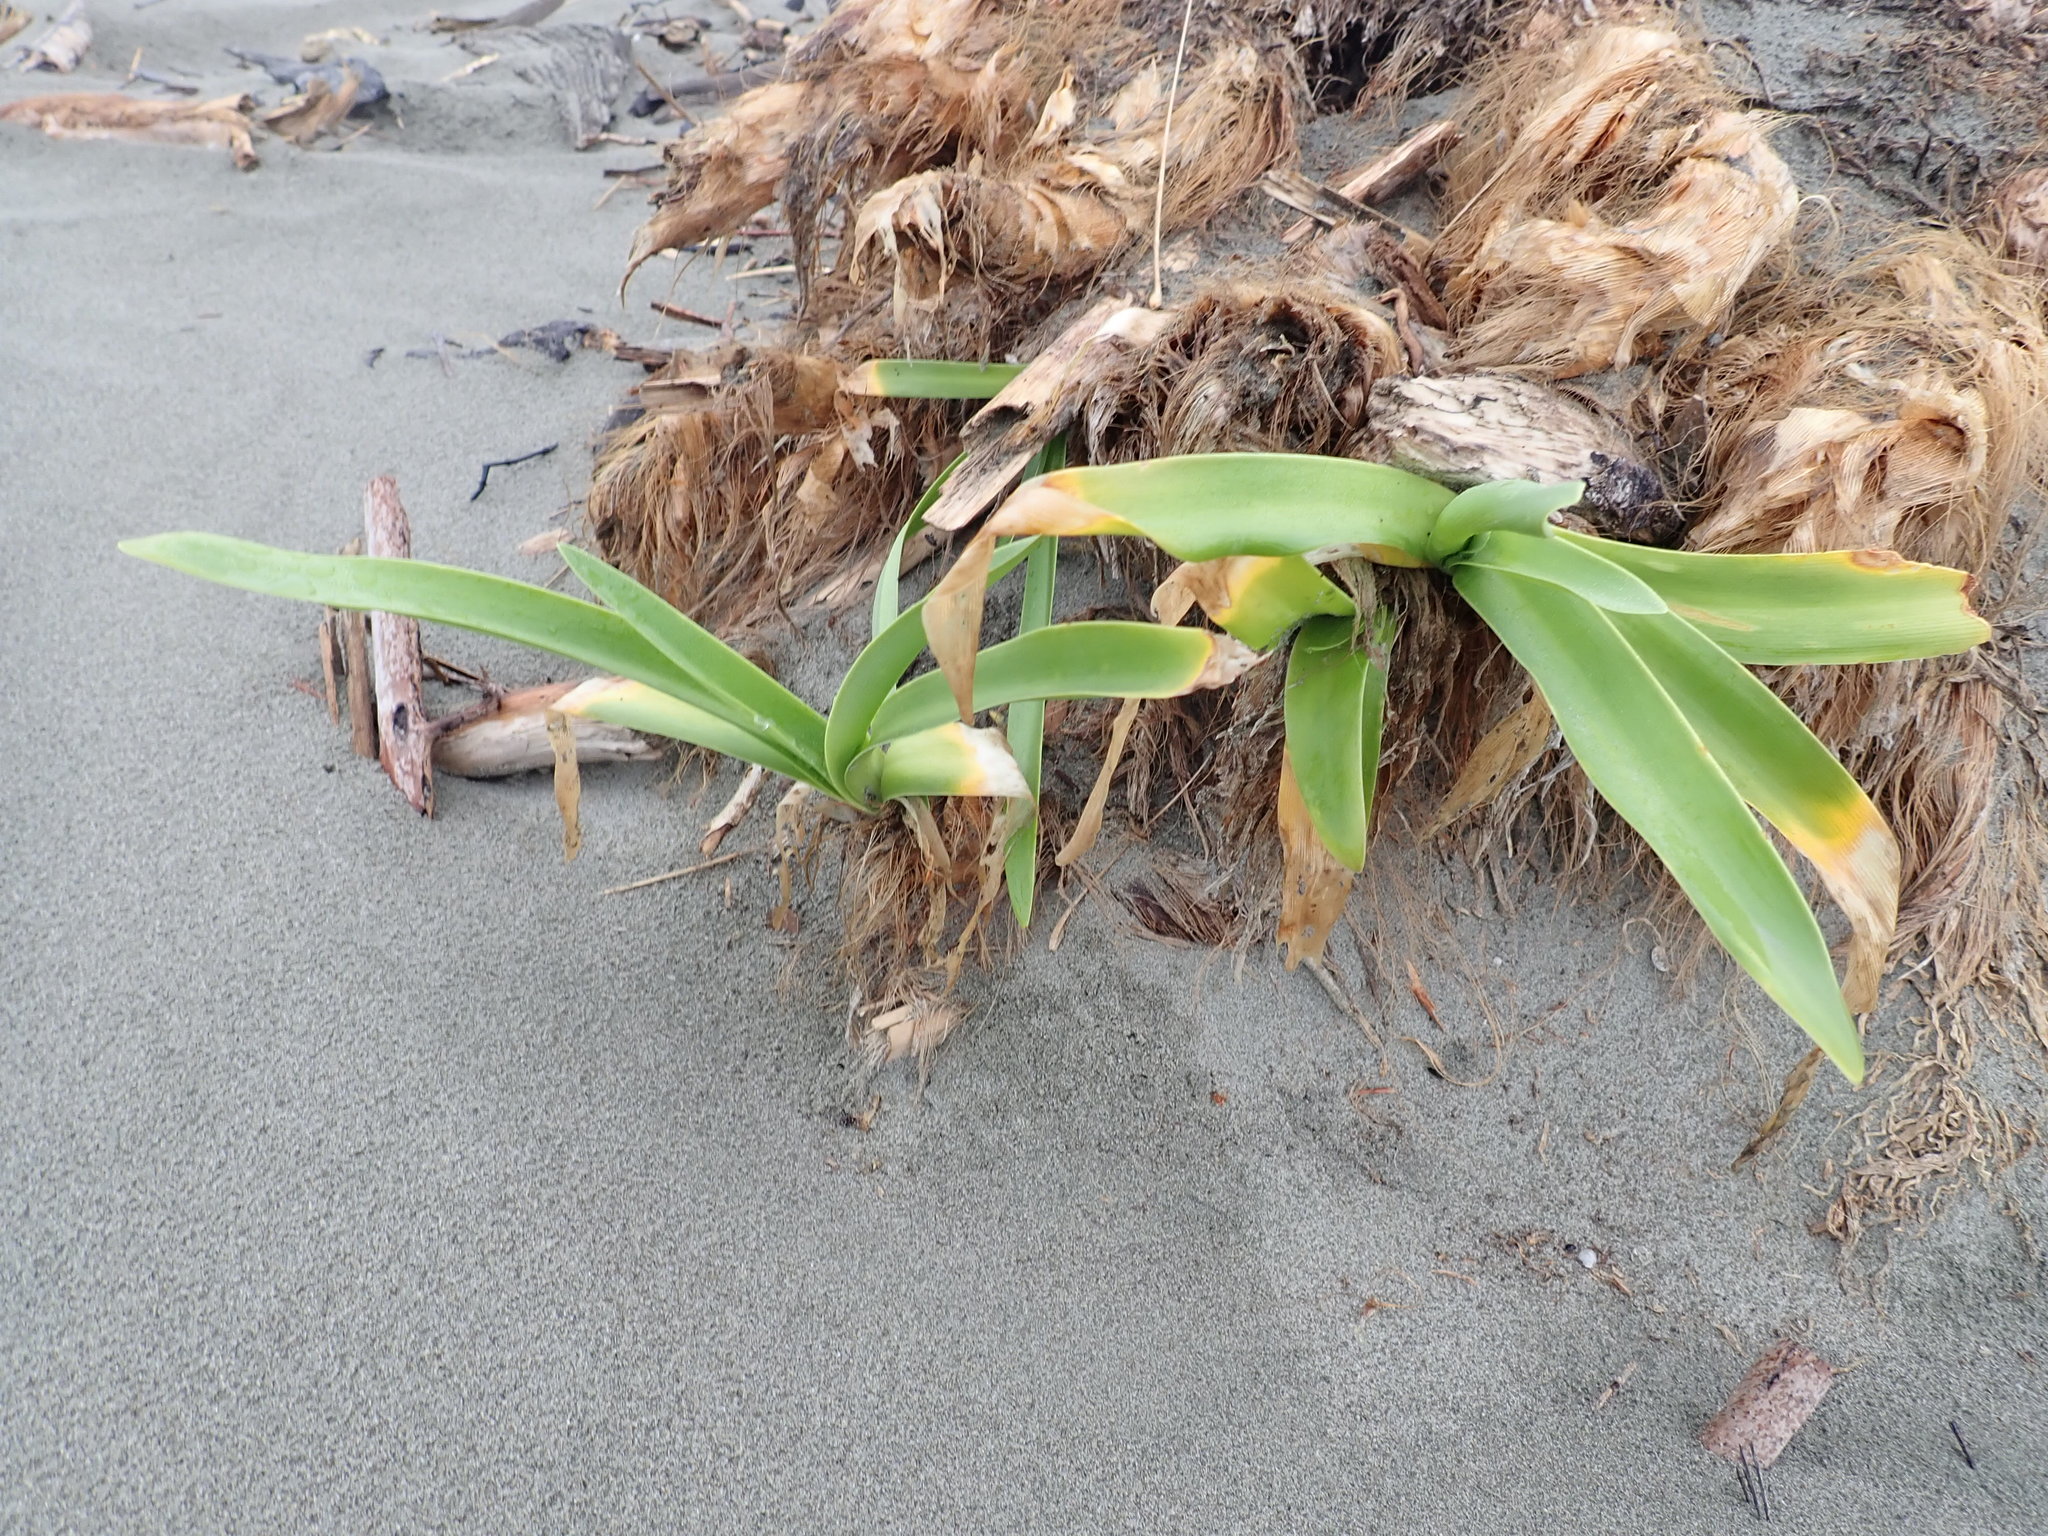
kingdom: Plantae
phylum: Tracheophyta
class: Liliopsida
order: Asparagales
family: Amaryllidaceae
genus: Agapanthus
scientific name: Agapanthus praecox
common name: African-lily
